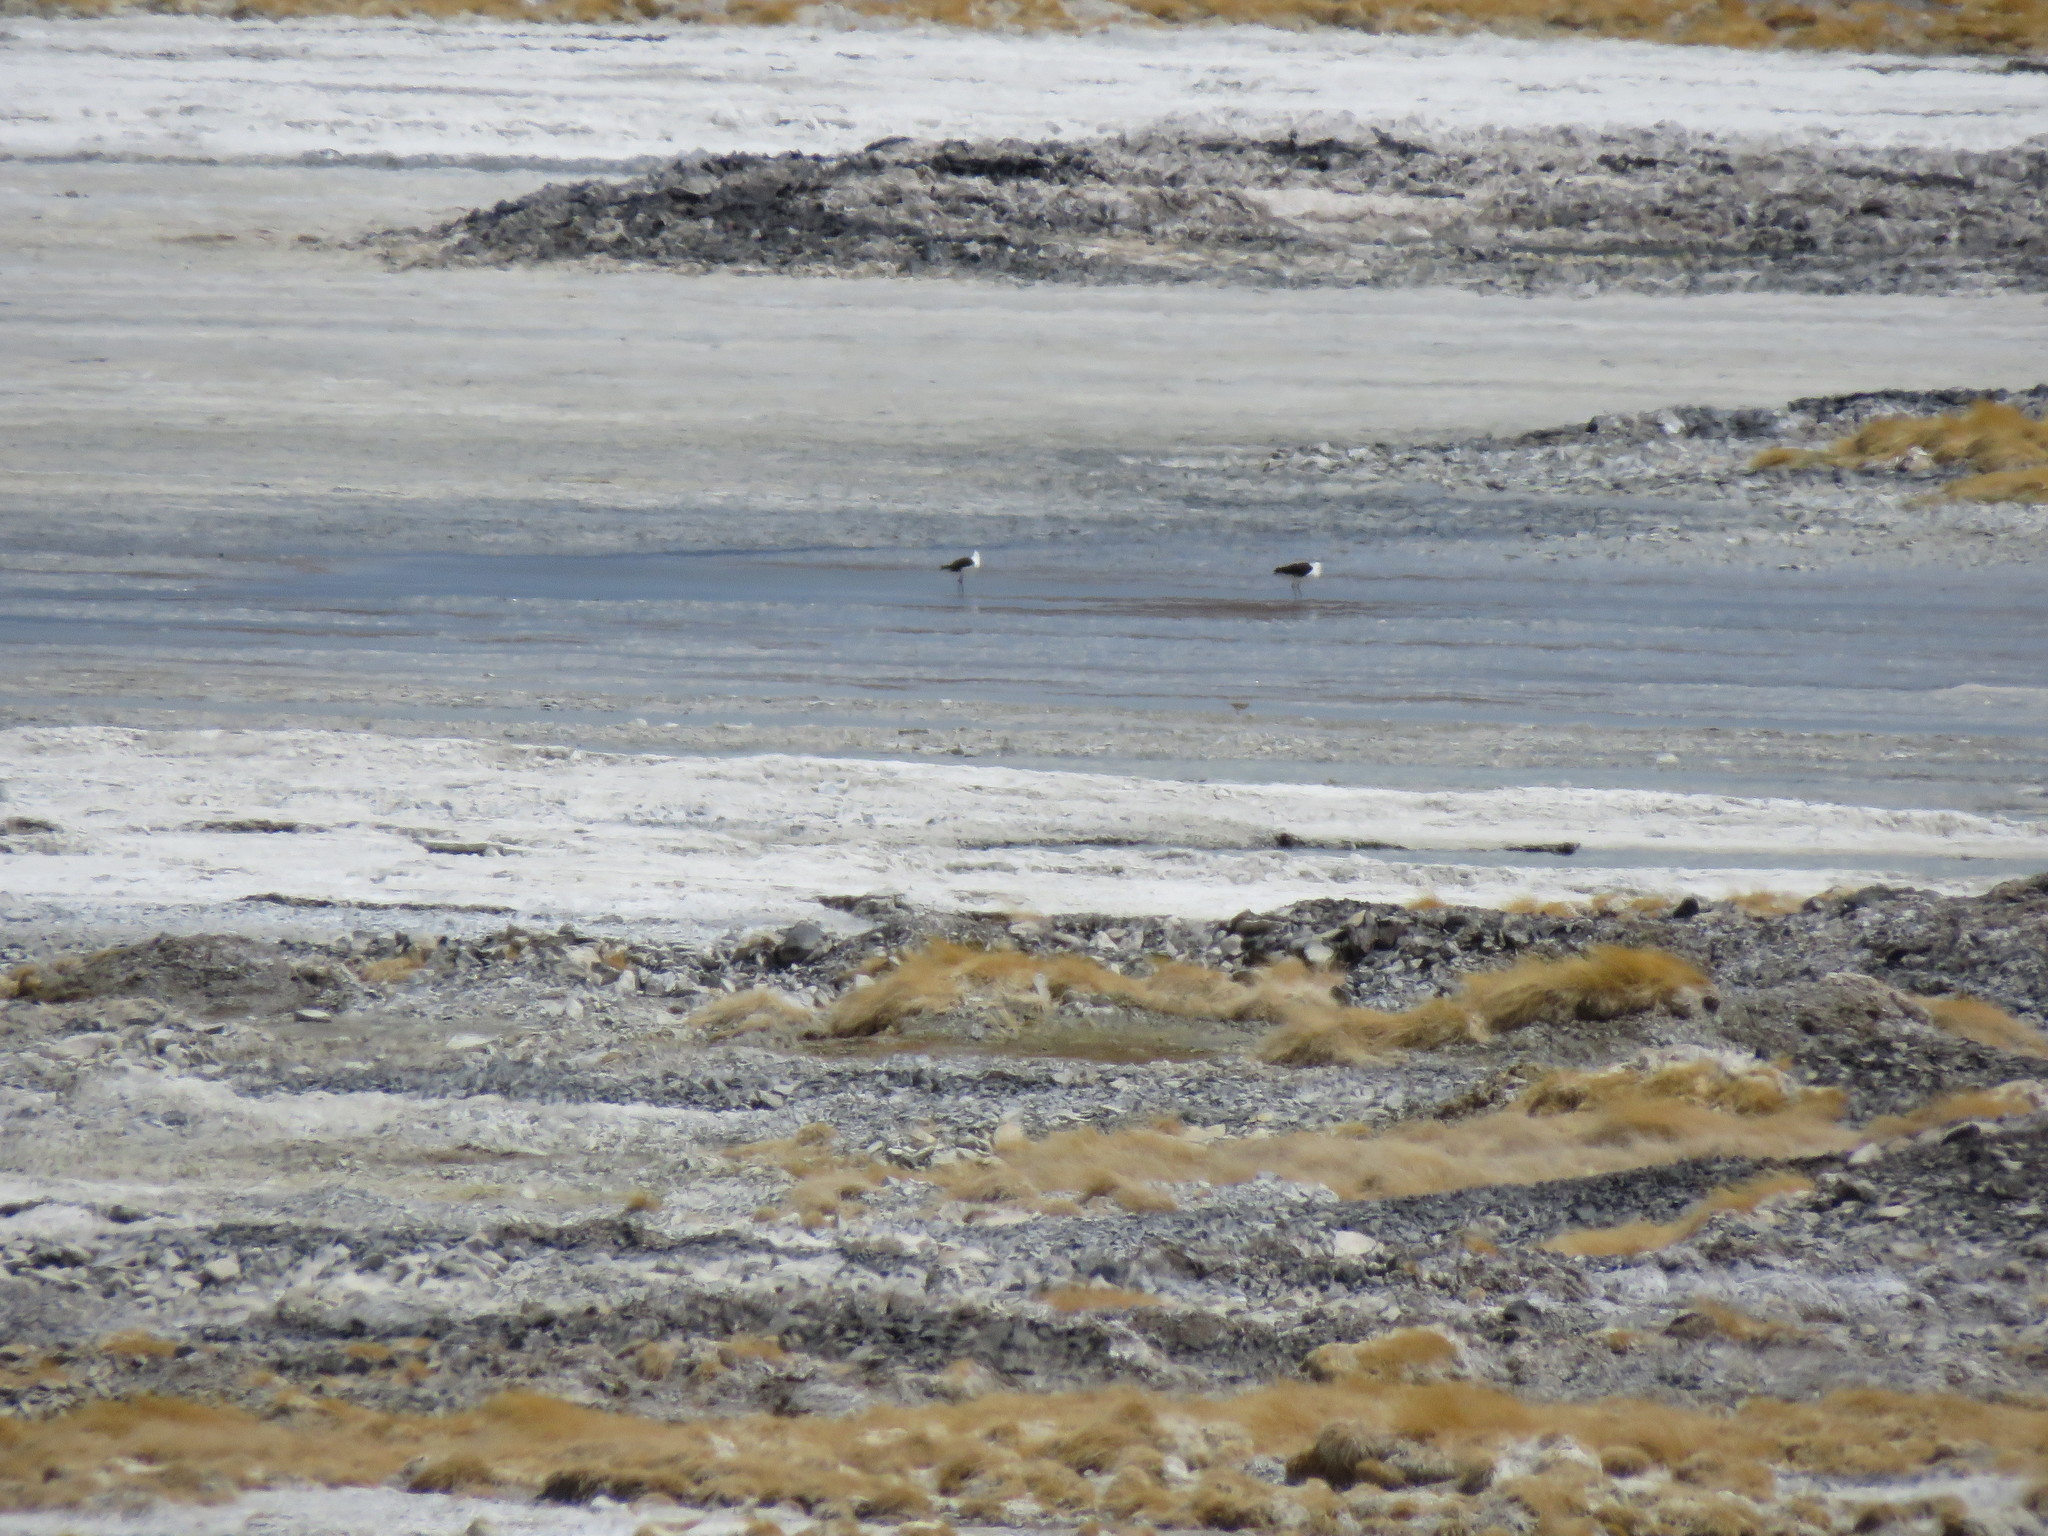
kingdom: Animalia
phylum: Chordata
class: Aves
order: Charadriiformes
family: Recurvirostridae
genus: Recurvirostra
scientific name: Recurvirostra andina
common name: Andean avocet
